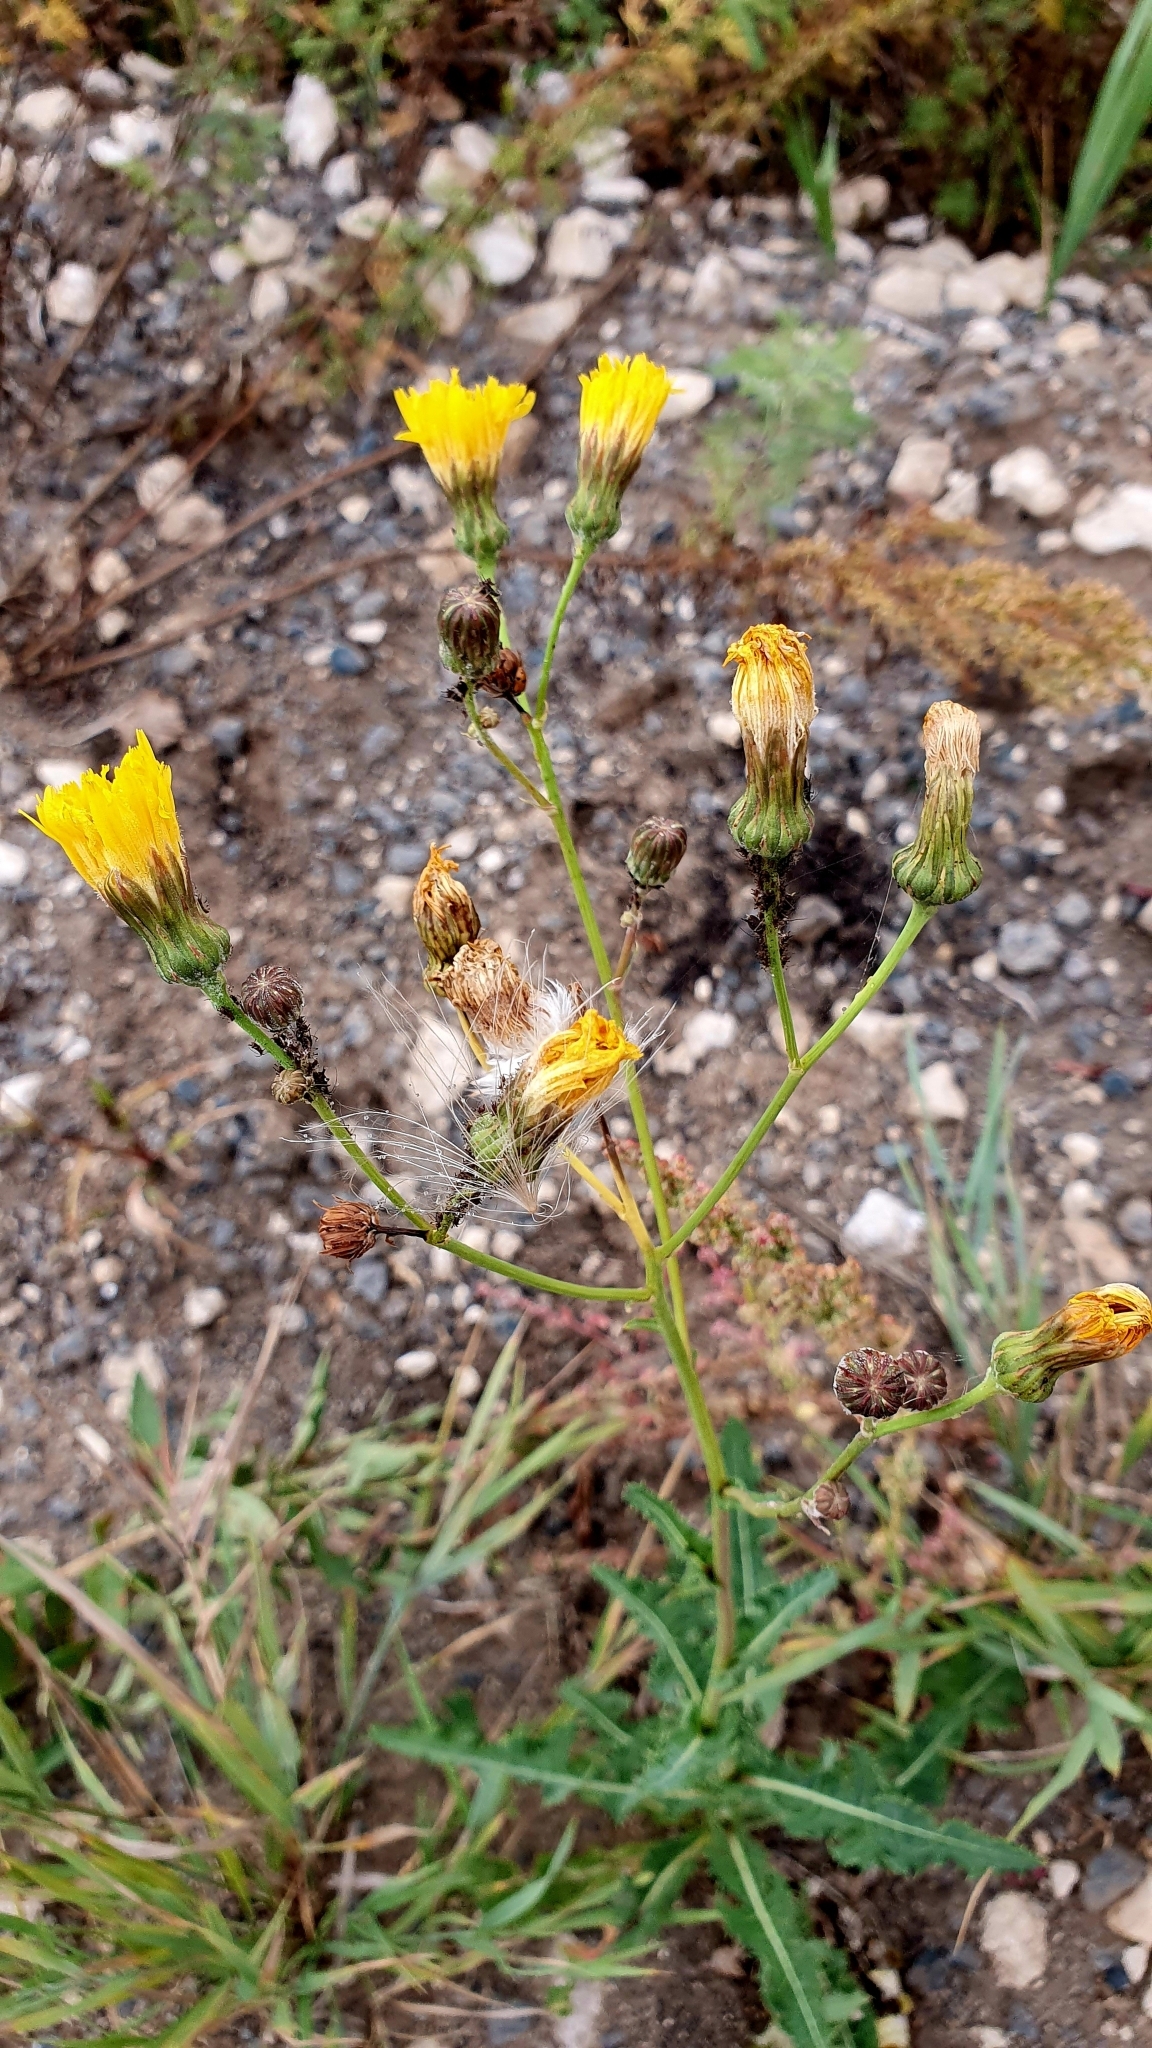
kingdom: Plantae
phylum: Tracheophyta
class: Magnoliopsida
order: Asterales
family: Asteraceae
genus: Sonchus
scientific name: Sonchus arvensis
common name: Perennial sow-thistle
